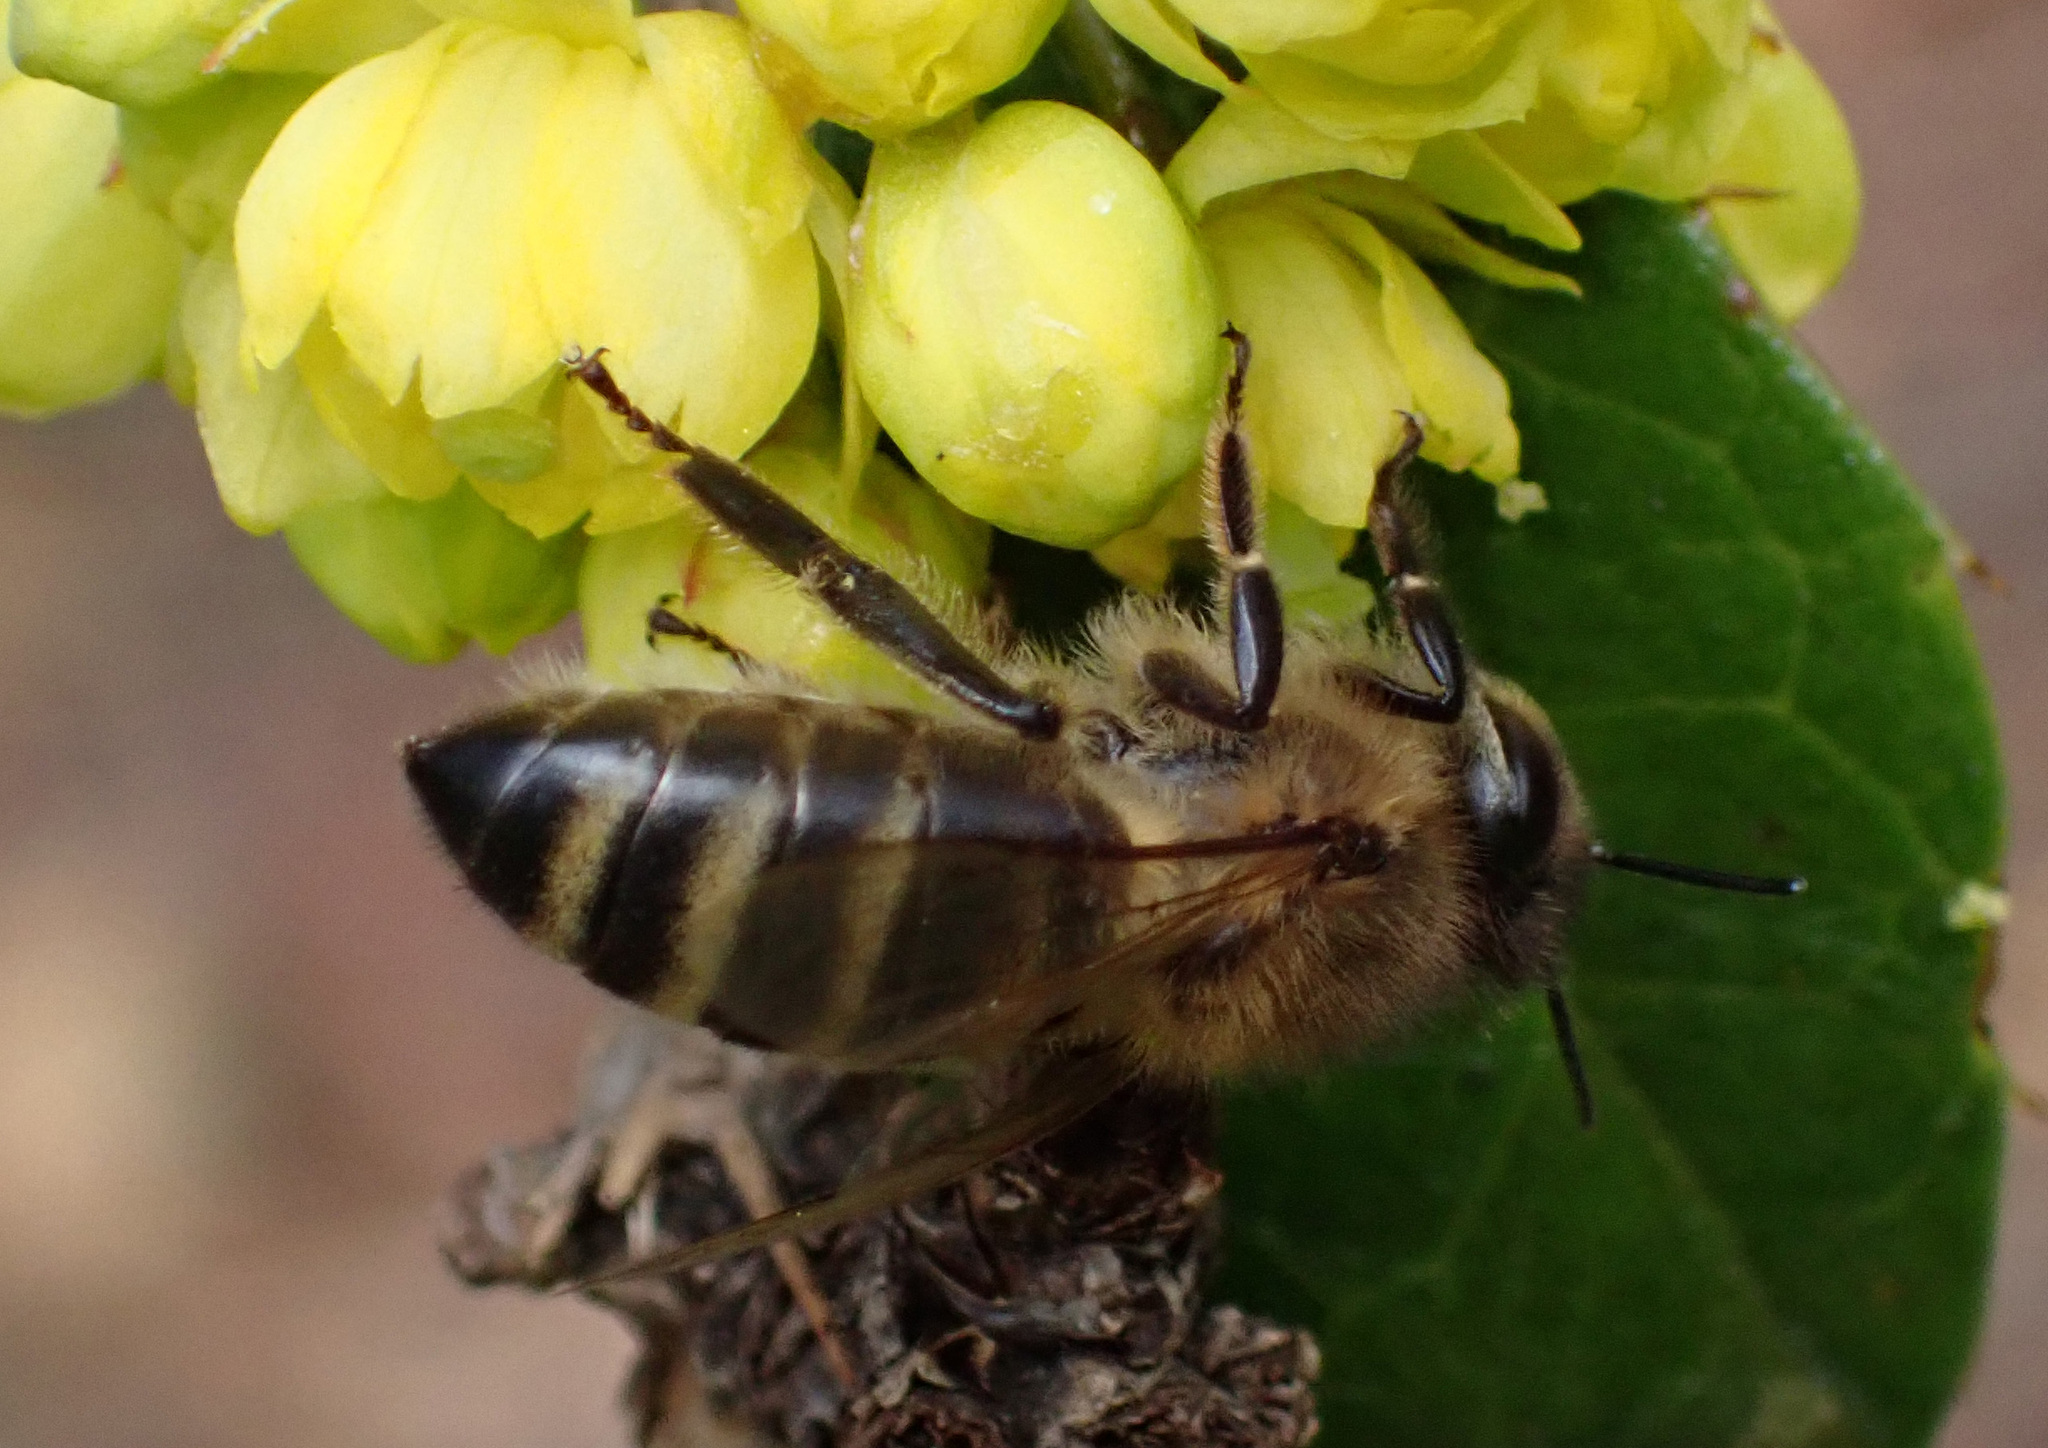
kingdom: Animalia
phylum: Arthropoda
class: Insecta
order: Hymenoptera
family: Apidae
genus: Apis
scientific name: Apis mellifera
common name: Honey bee
